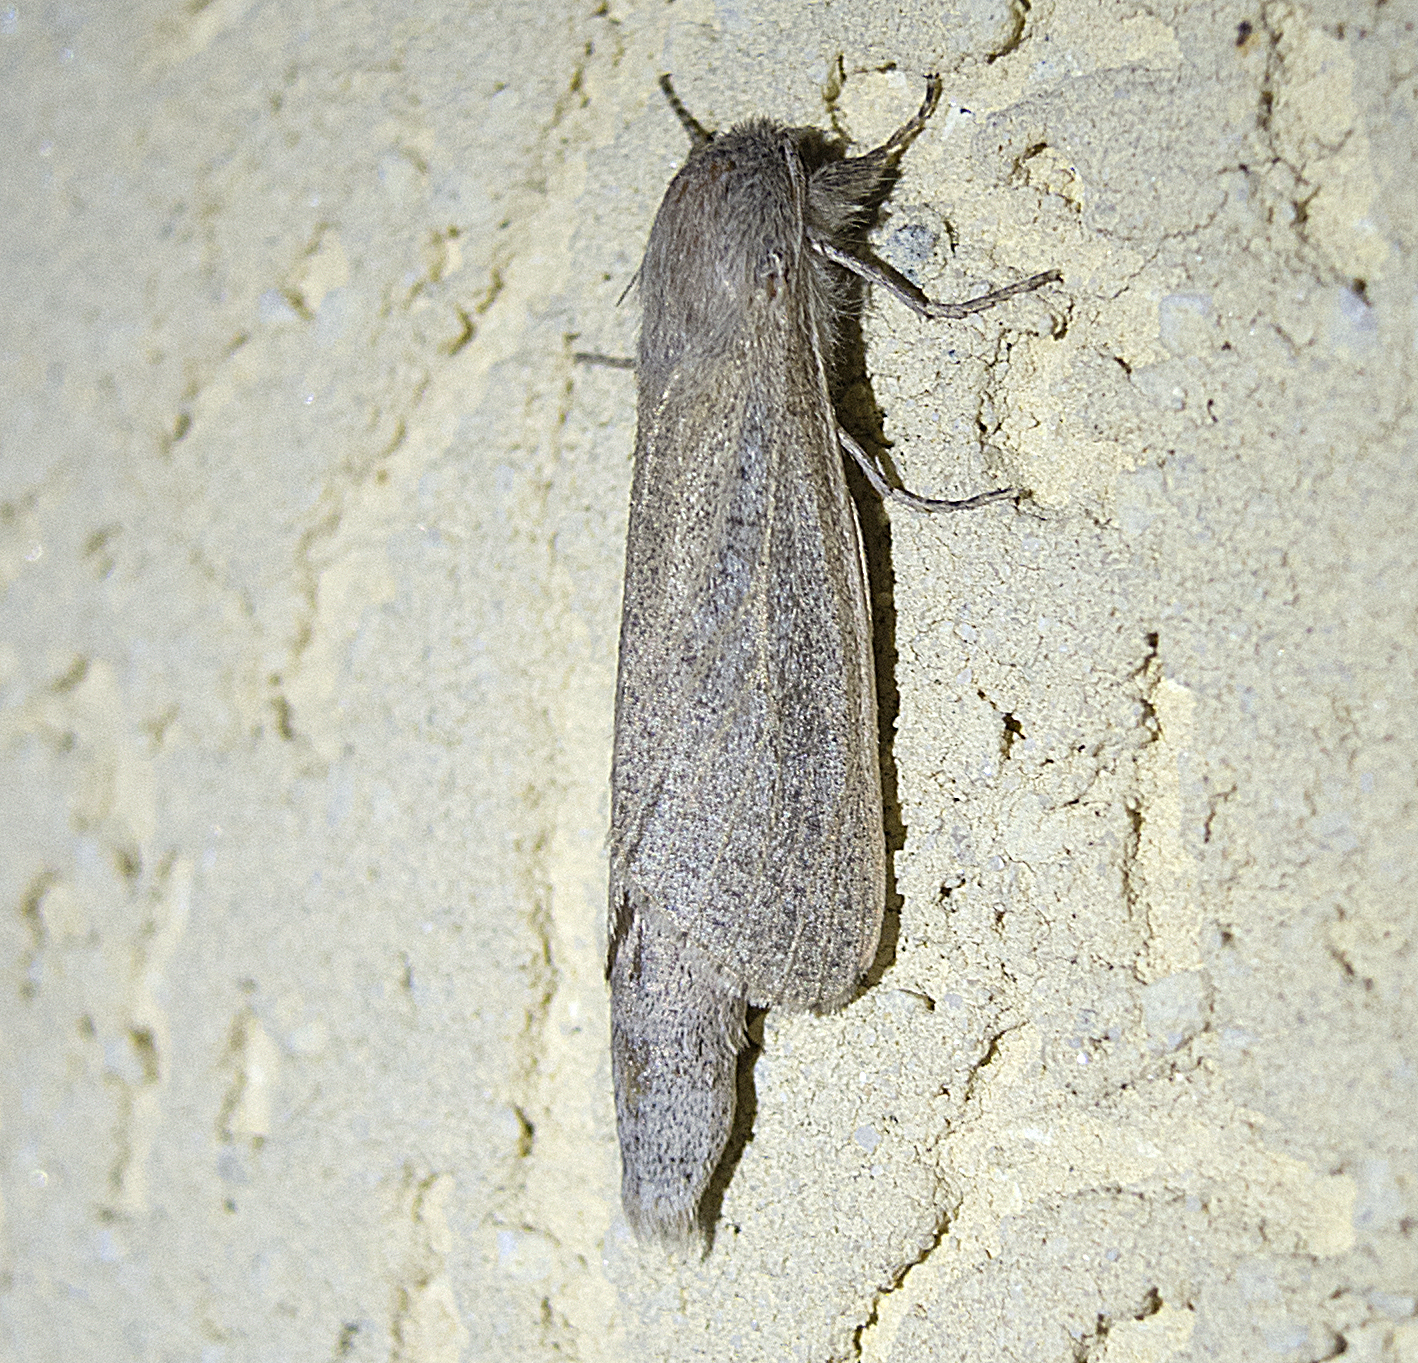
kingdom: Animalia
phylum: Arthropoda
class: Insecta
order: Lepidoptera
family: Cossidae
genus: Phragmataecia
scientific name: Phragmataecia castaneae
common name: Reed leopard
